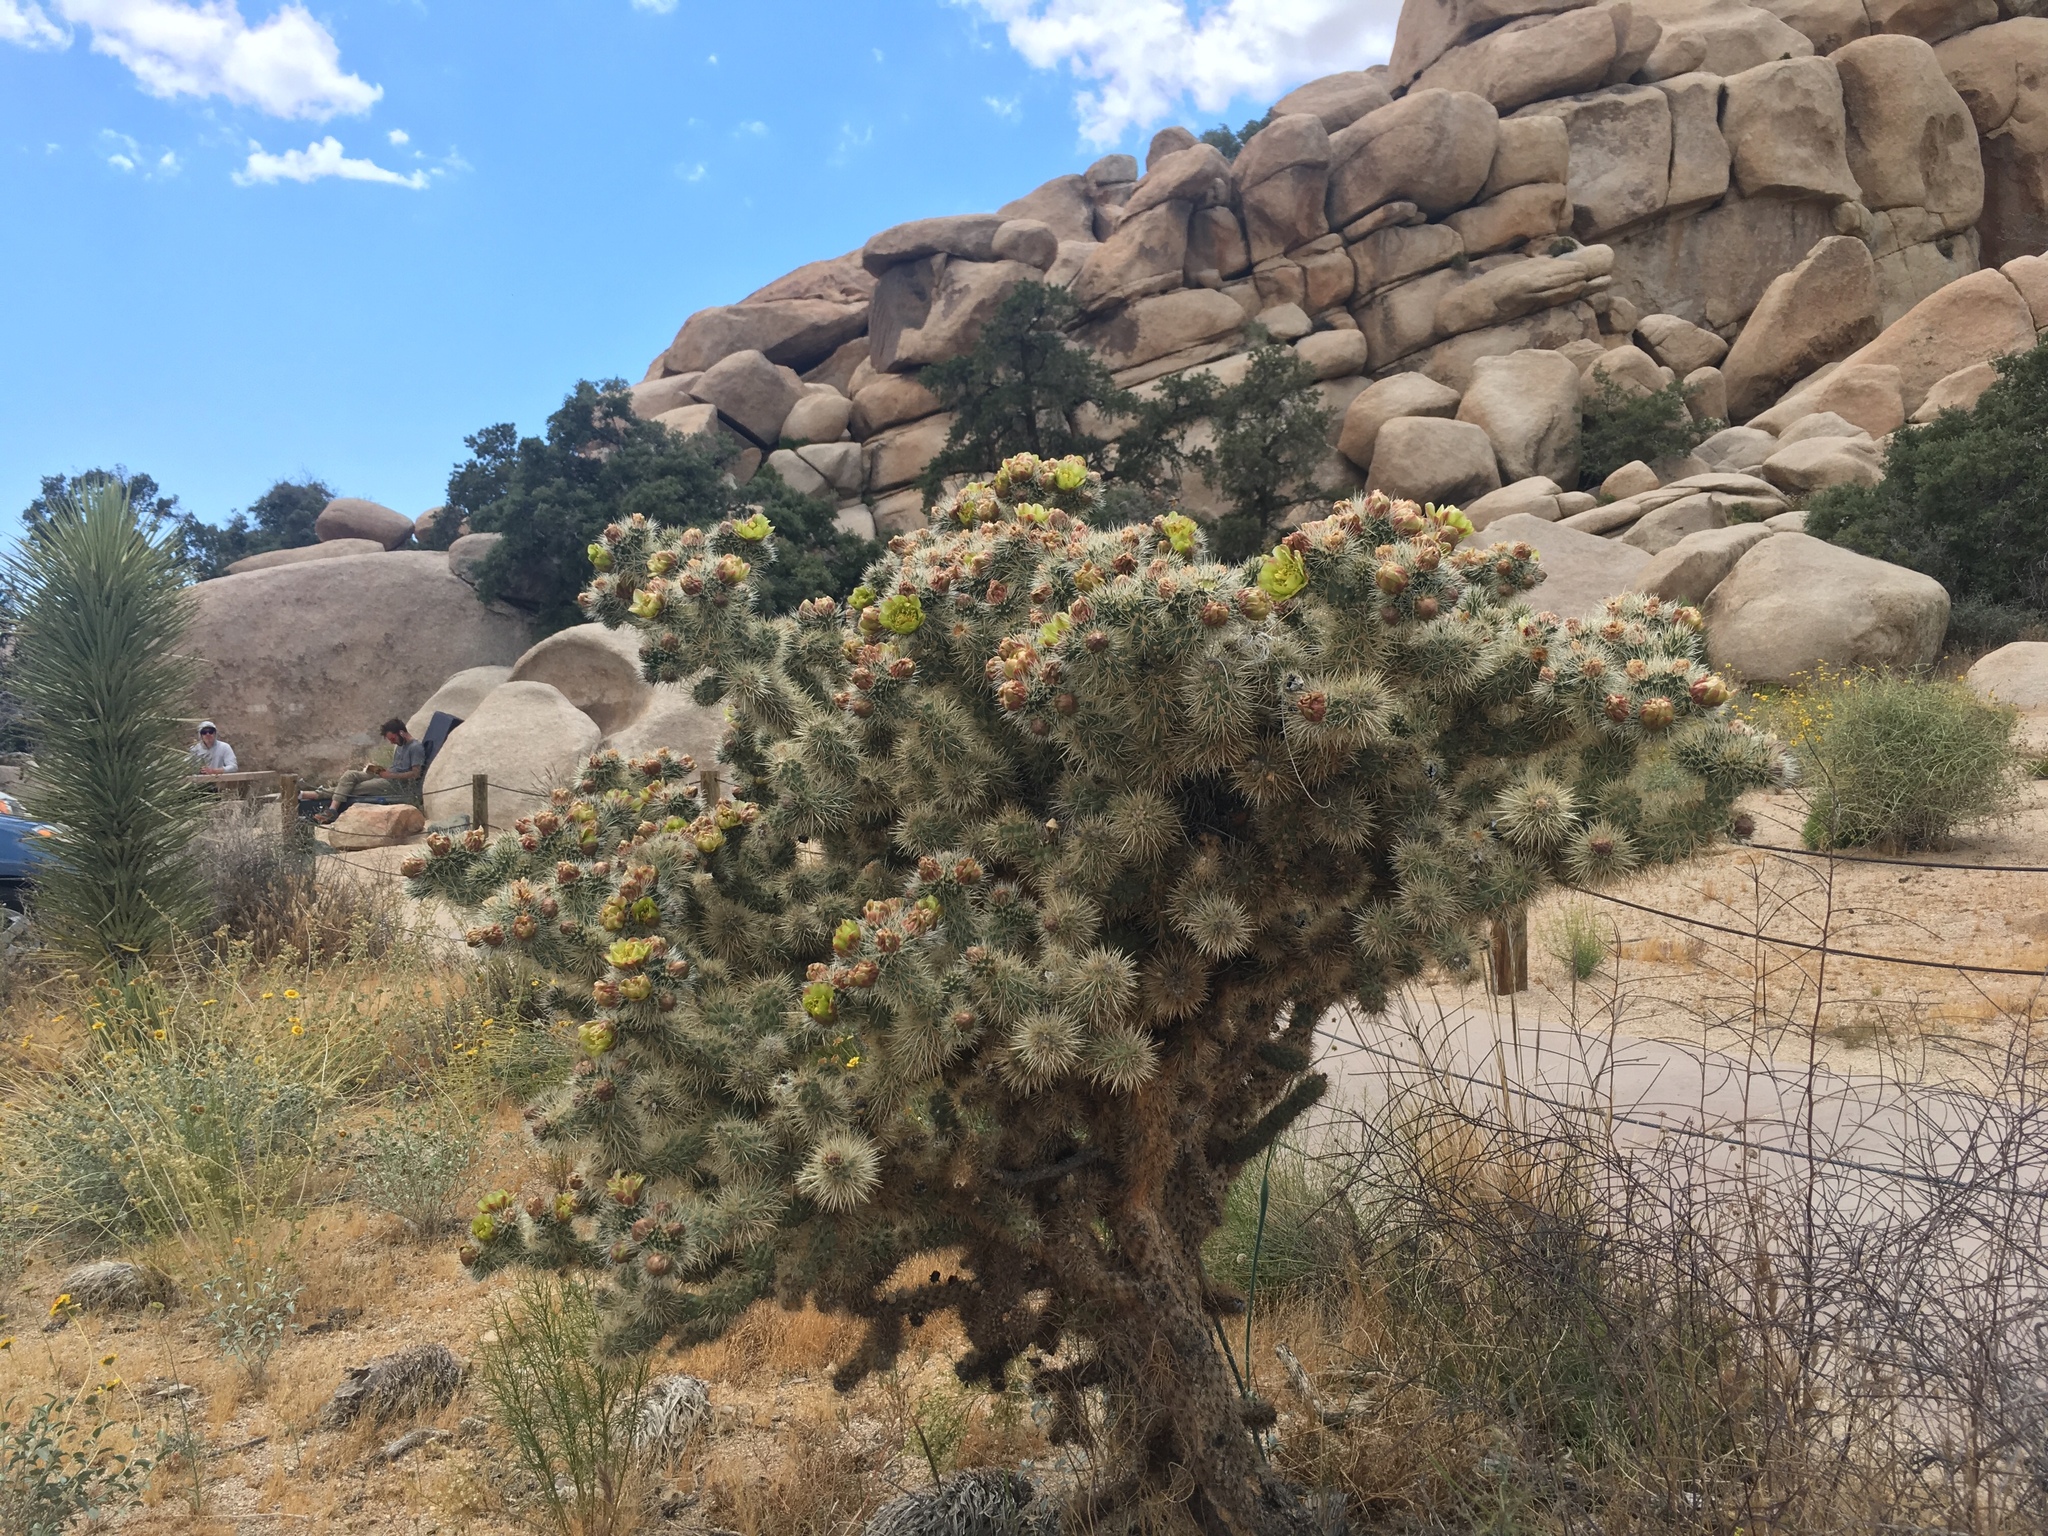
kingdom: Plantae
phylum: Tracheophyta
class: Magnoliopsida
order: Caryophyllales
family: Cactaceae
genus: Cylindropuntia
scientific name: Cylindropuntia echinocarpa
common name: Ground cholla
